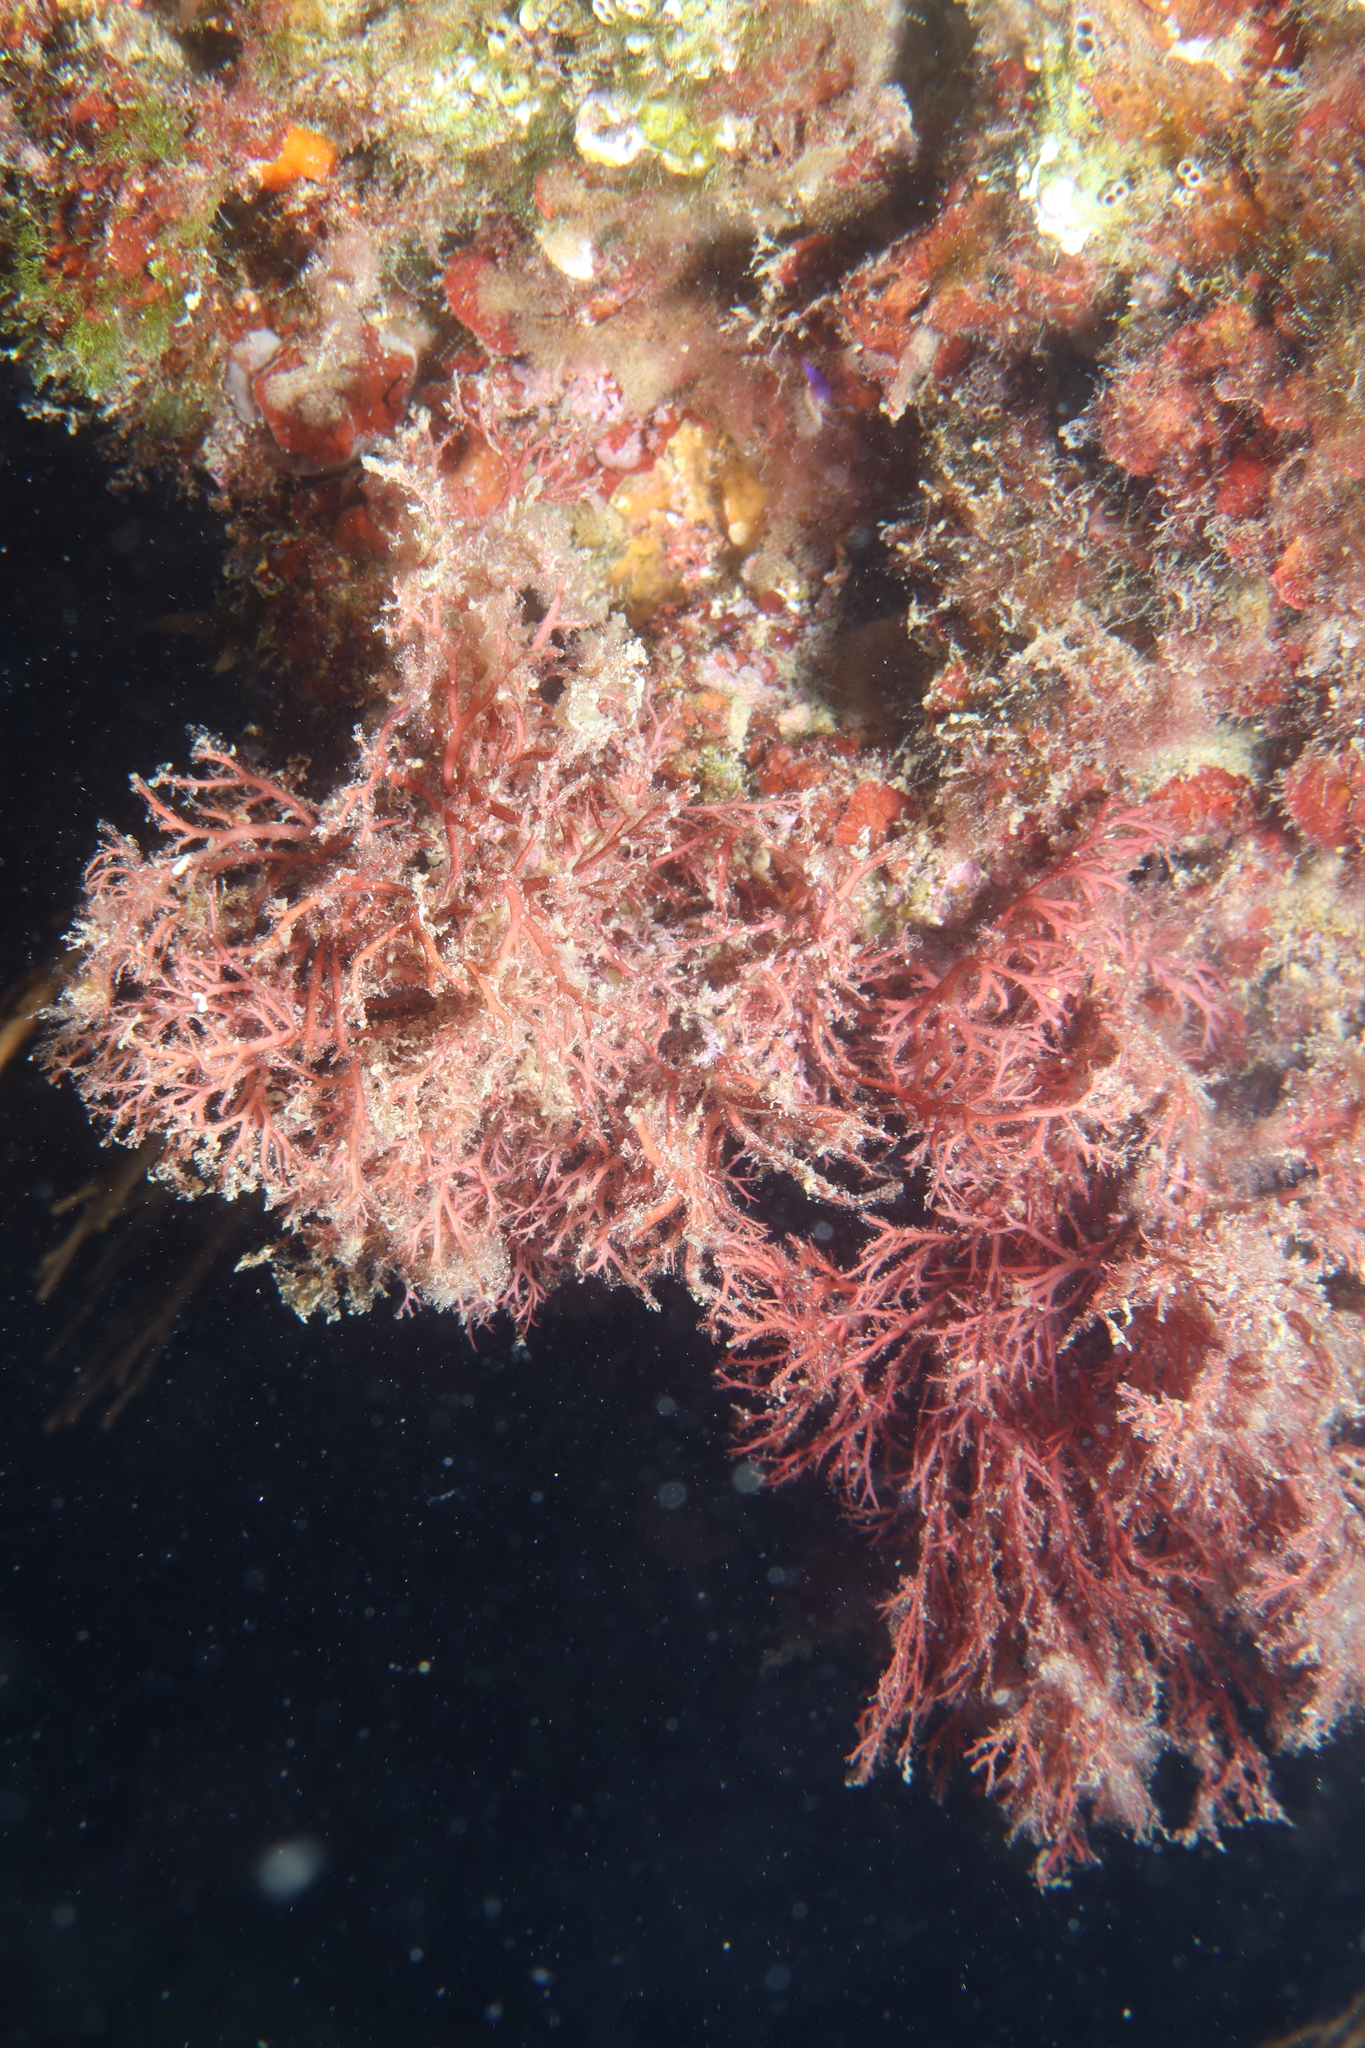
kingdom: Plantae
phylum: Rhodophyta
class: Florideophyceae
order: Gigartinales
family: Sphaerococcaceae
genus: Sphaerococcus
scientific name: Sphaerococcus coronopifolius
